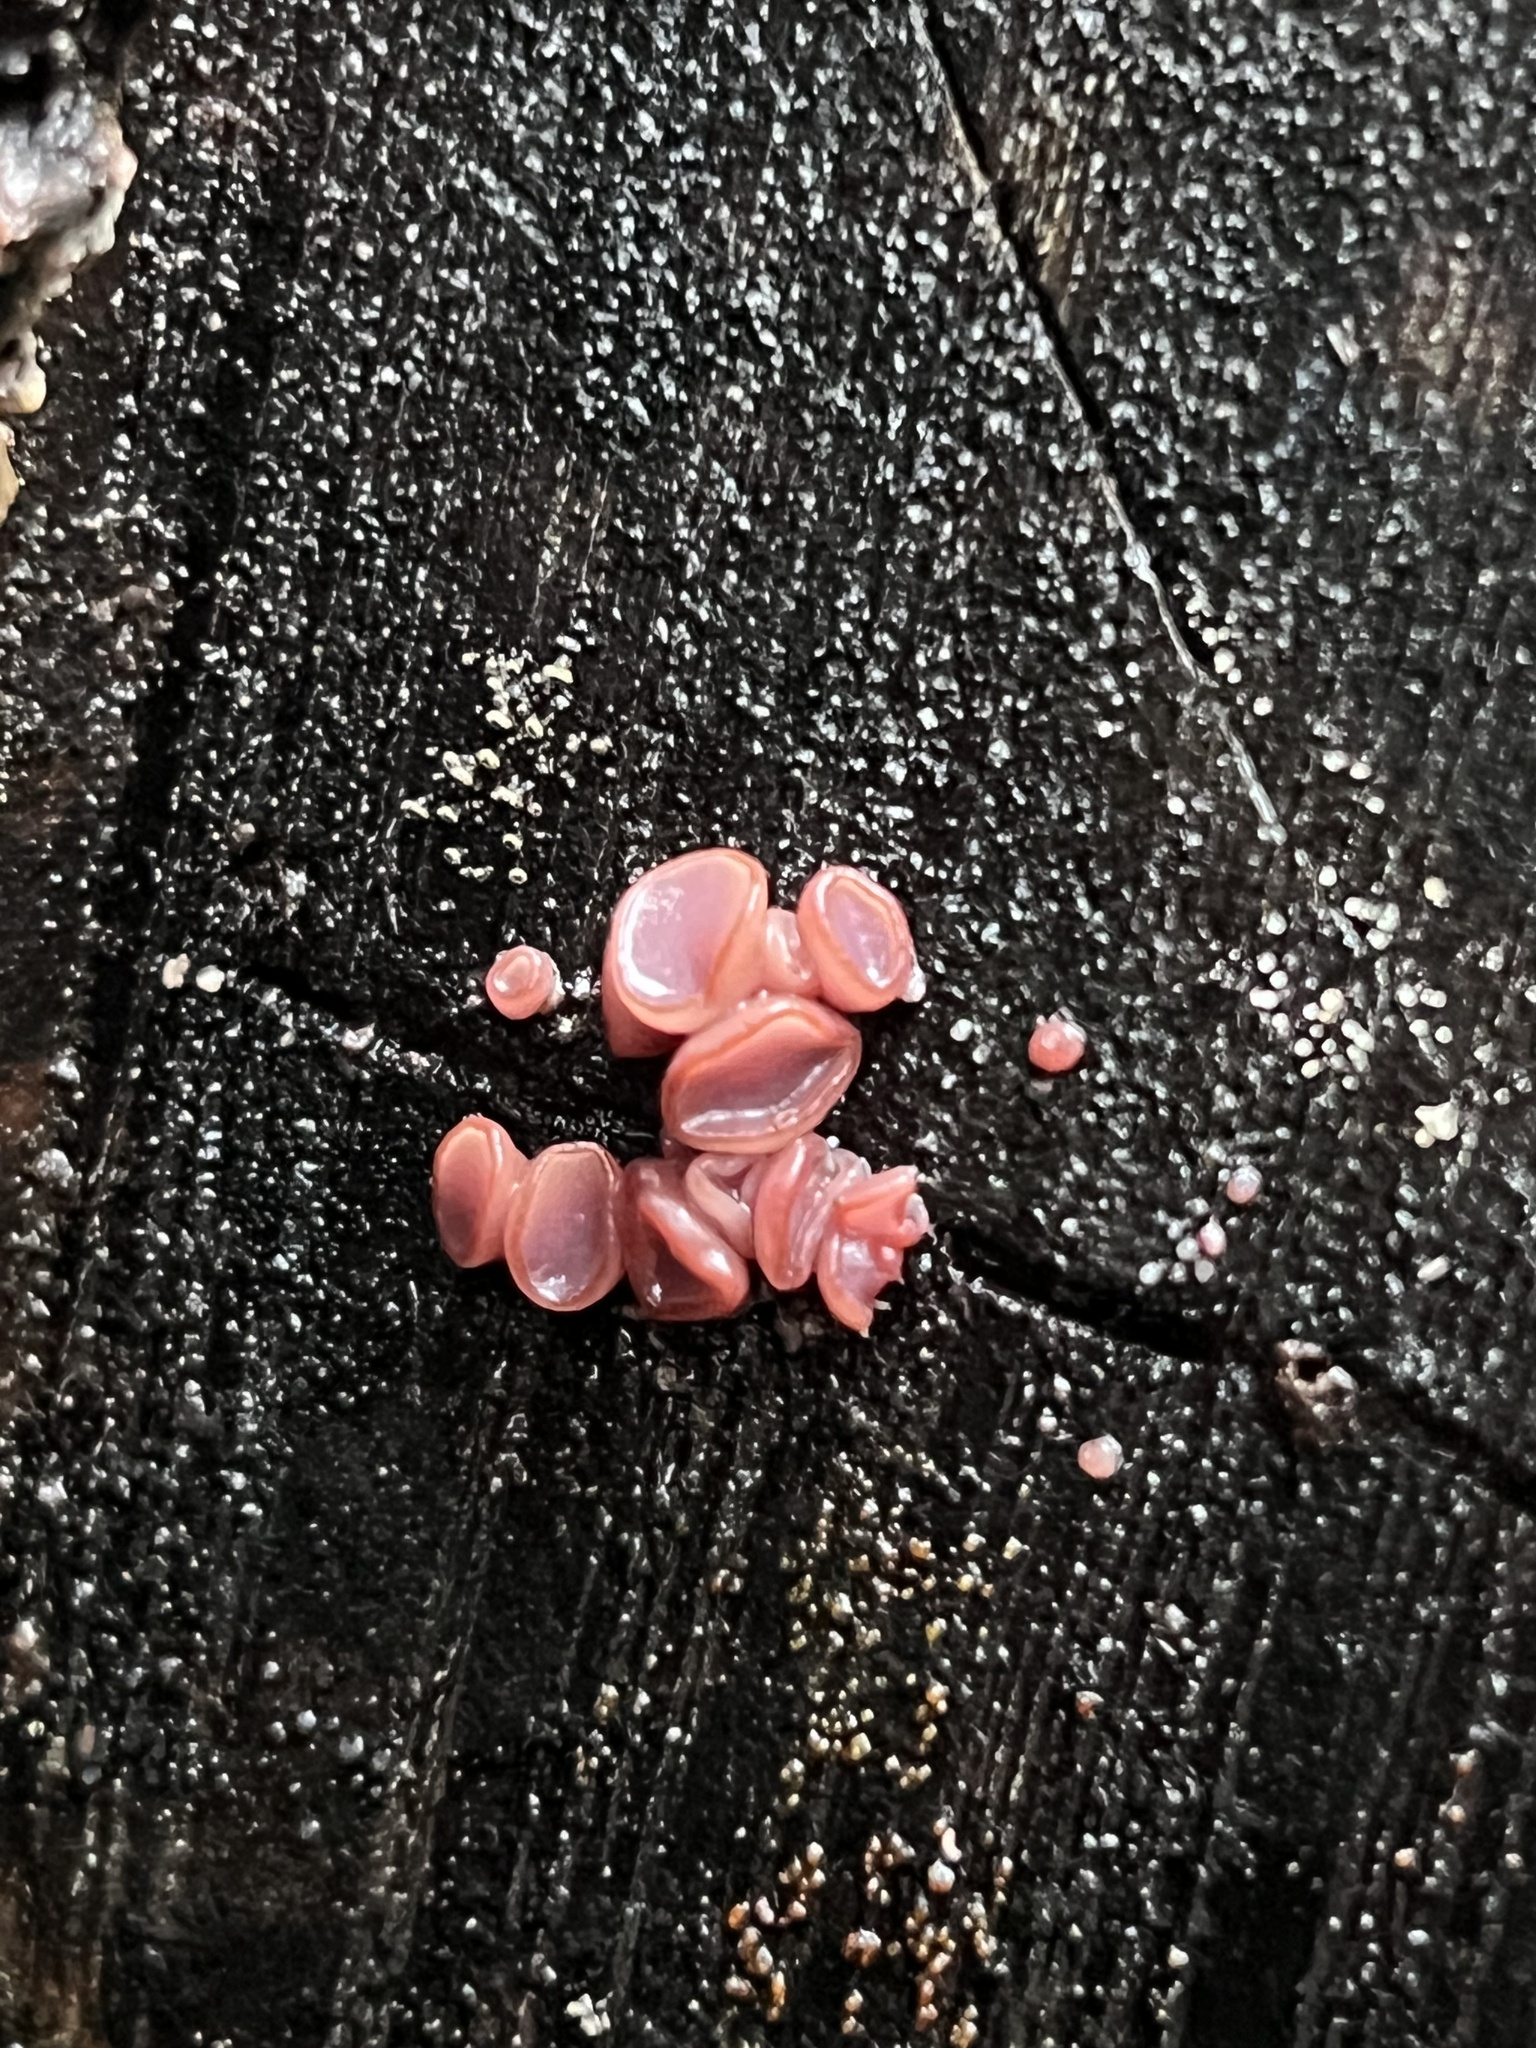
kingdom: Fungi
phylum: Ascomycota
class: Leotiomycetes
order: Helotiales
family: Gelatinodiscaceae
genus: Ascocoryne
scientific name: Ascocoryne sarcoides
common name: Purple jellydisc
